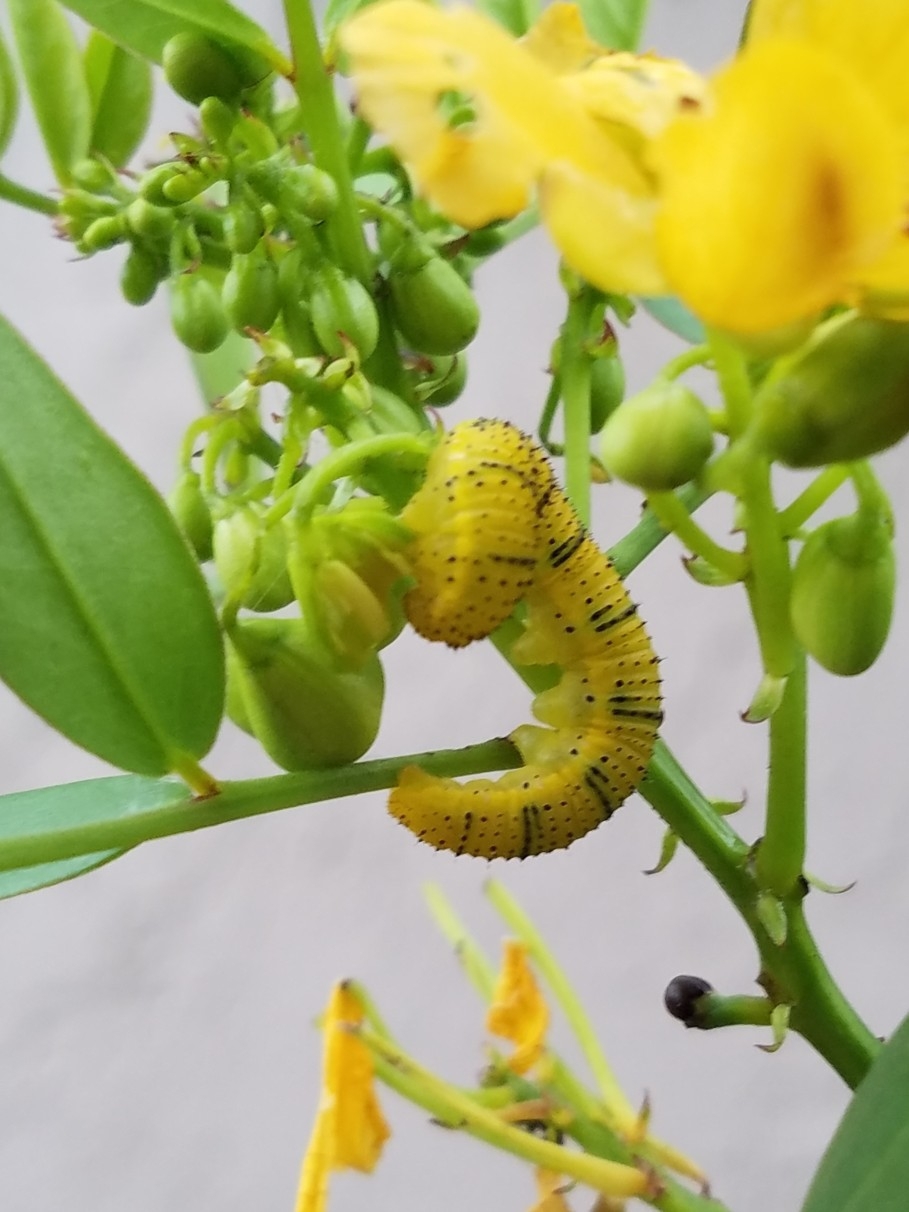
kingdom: Animalia
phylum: Arthropoda
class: Insecta
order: Lepidoptera
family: Pieridae
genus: Phoebis
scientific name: Phoebis sennae
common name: Cloudless sulphur
